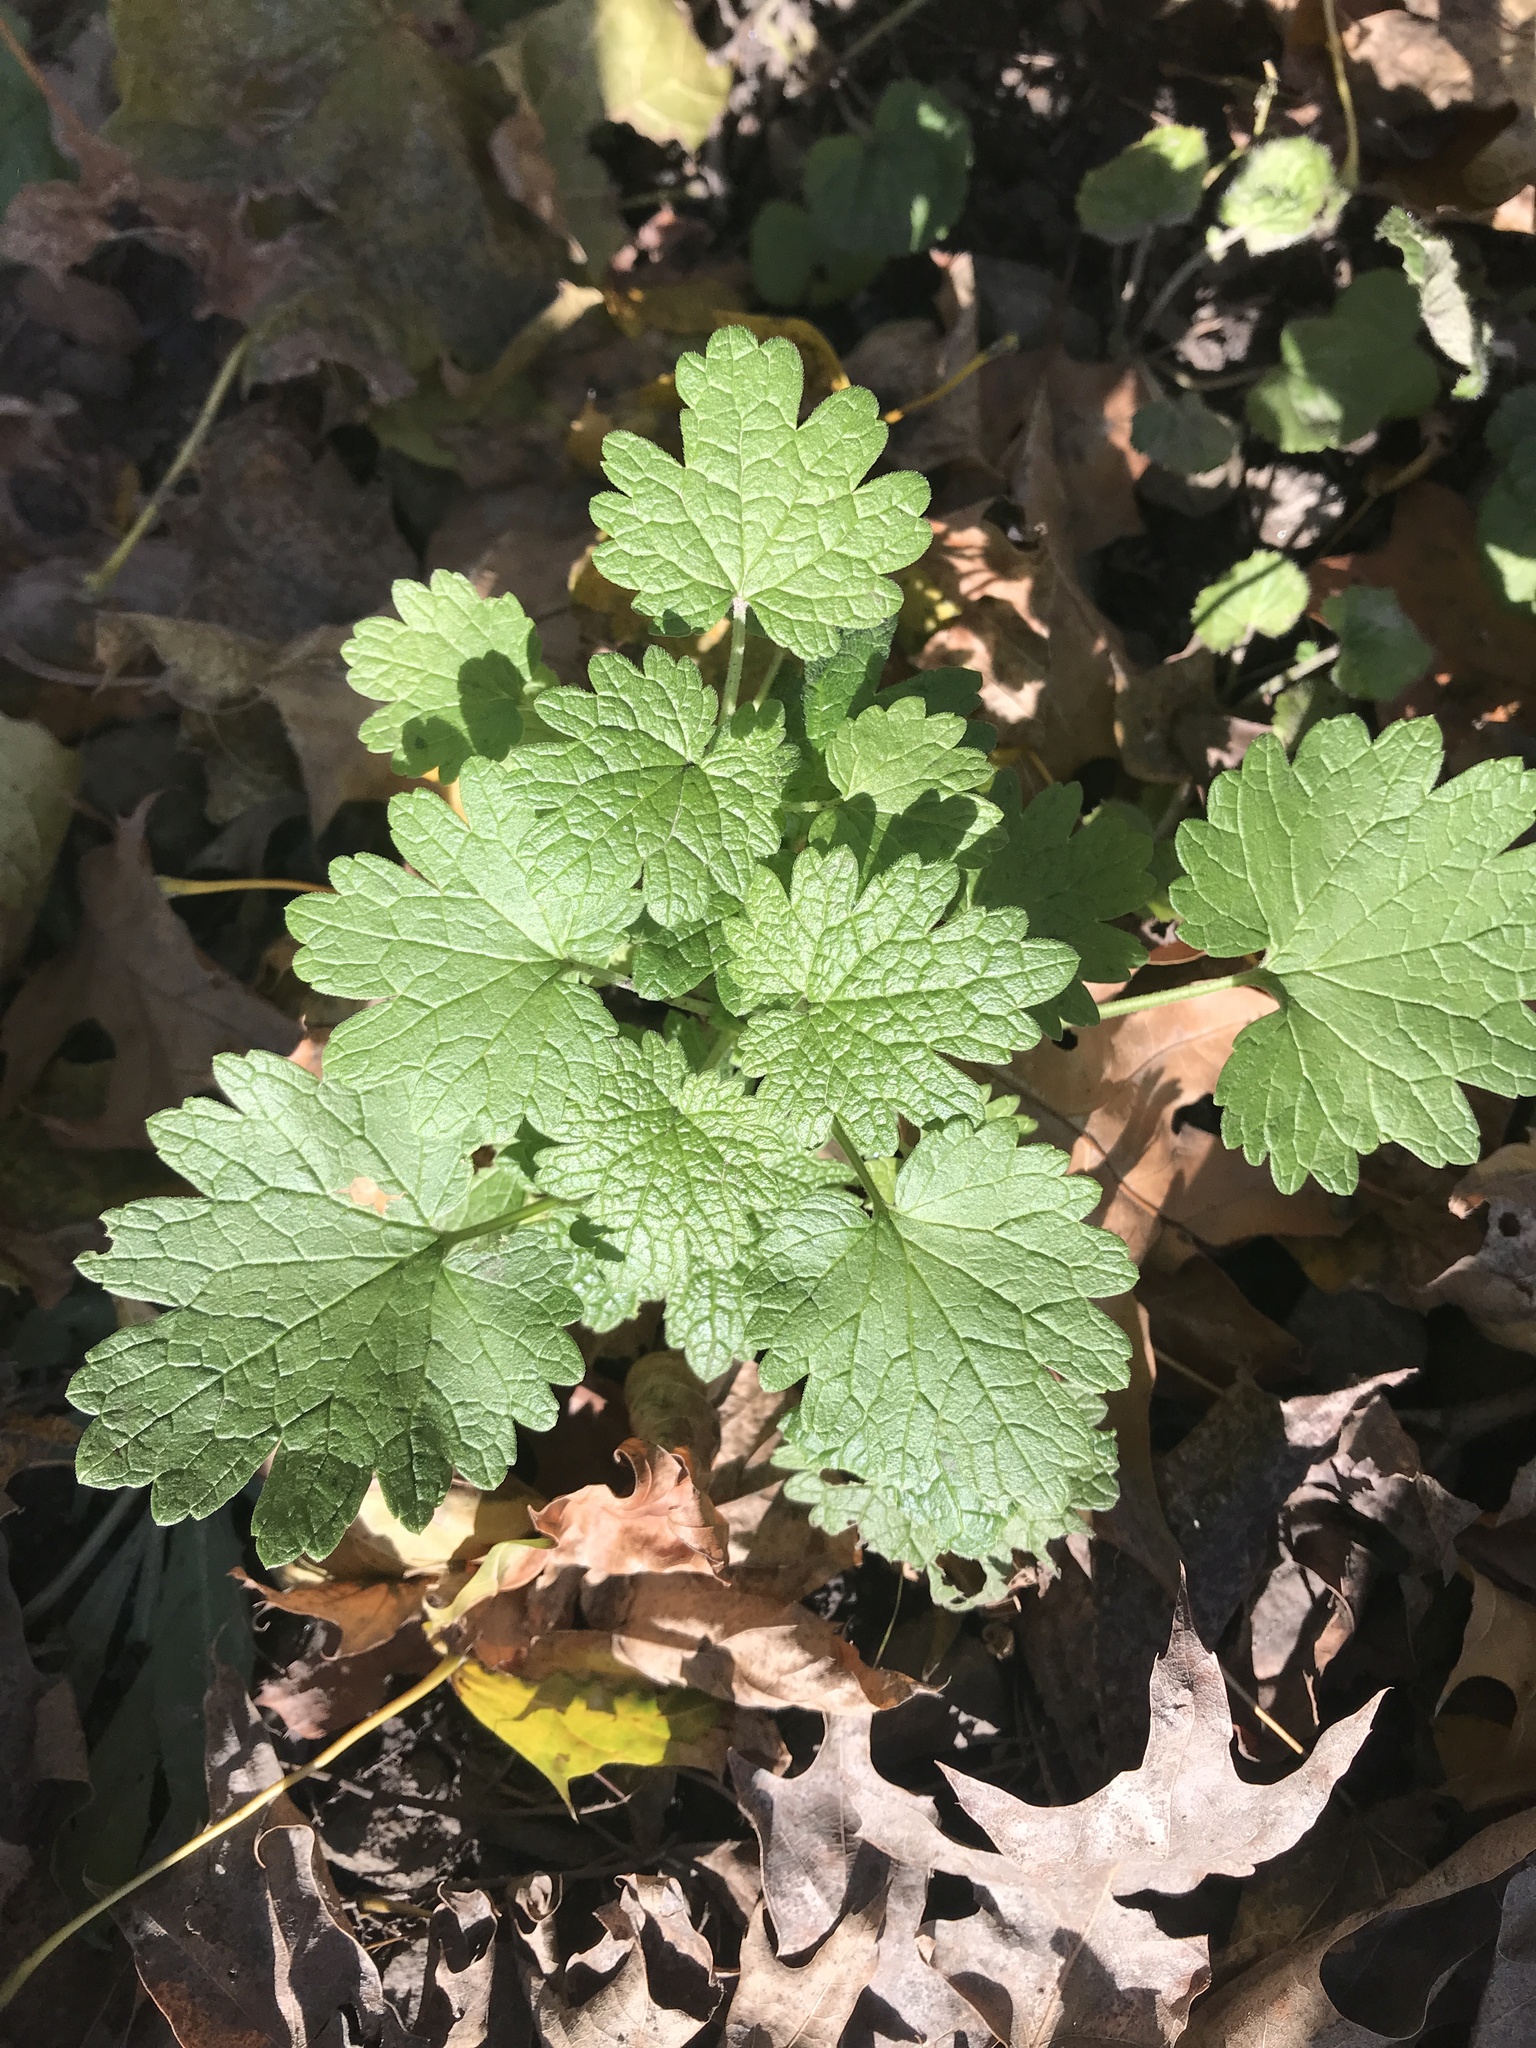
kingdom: Plantae
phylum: Tracheophyta
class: Magnoliopsida
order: Lamiales
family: Lamiaceae
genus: Leonurus
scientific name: Leonurus cardiaca
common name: Motherwort
